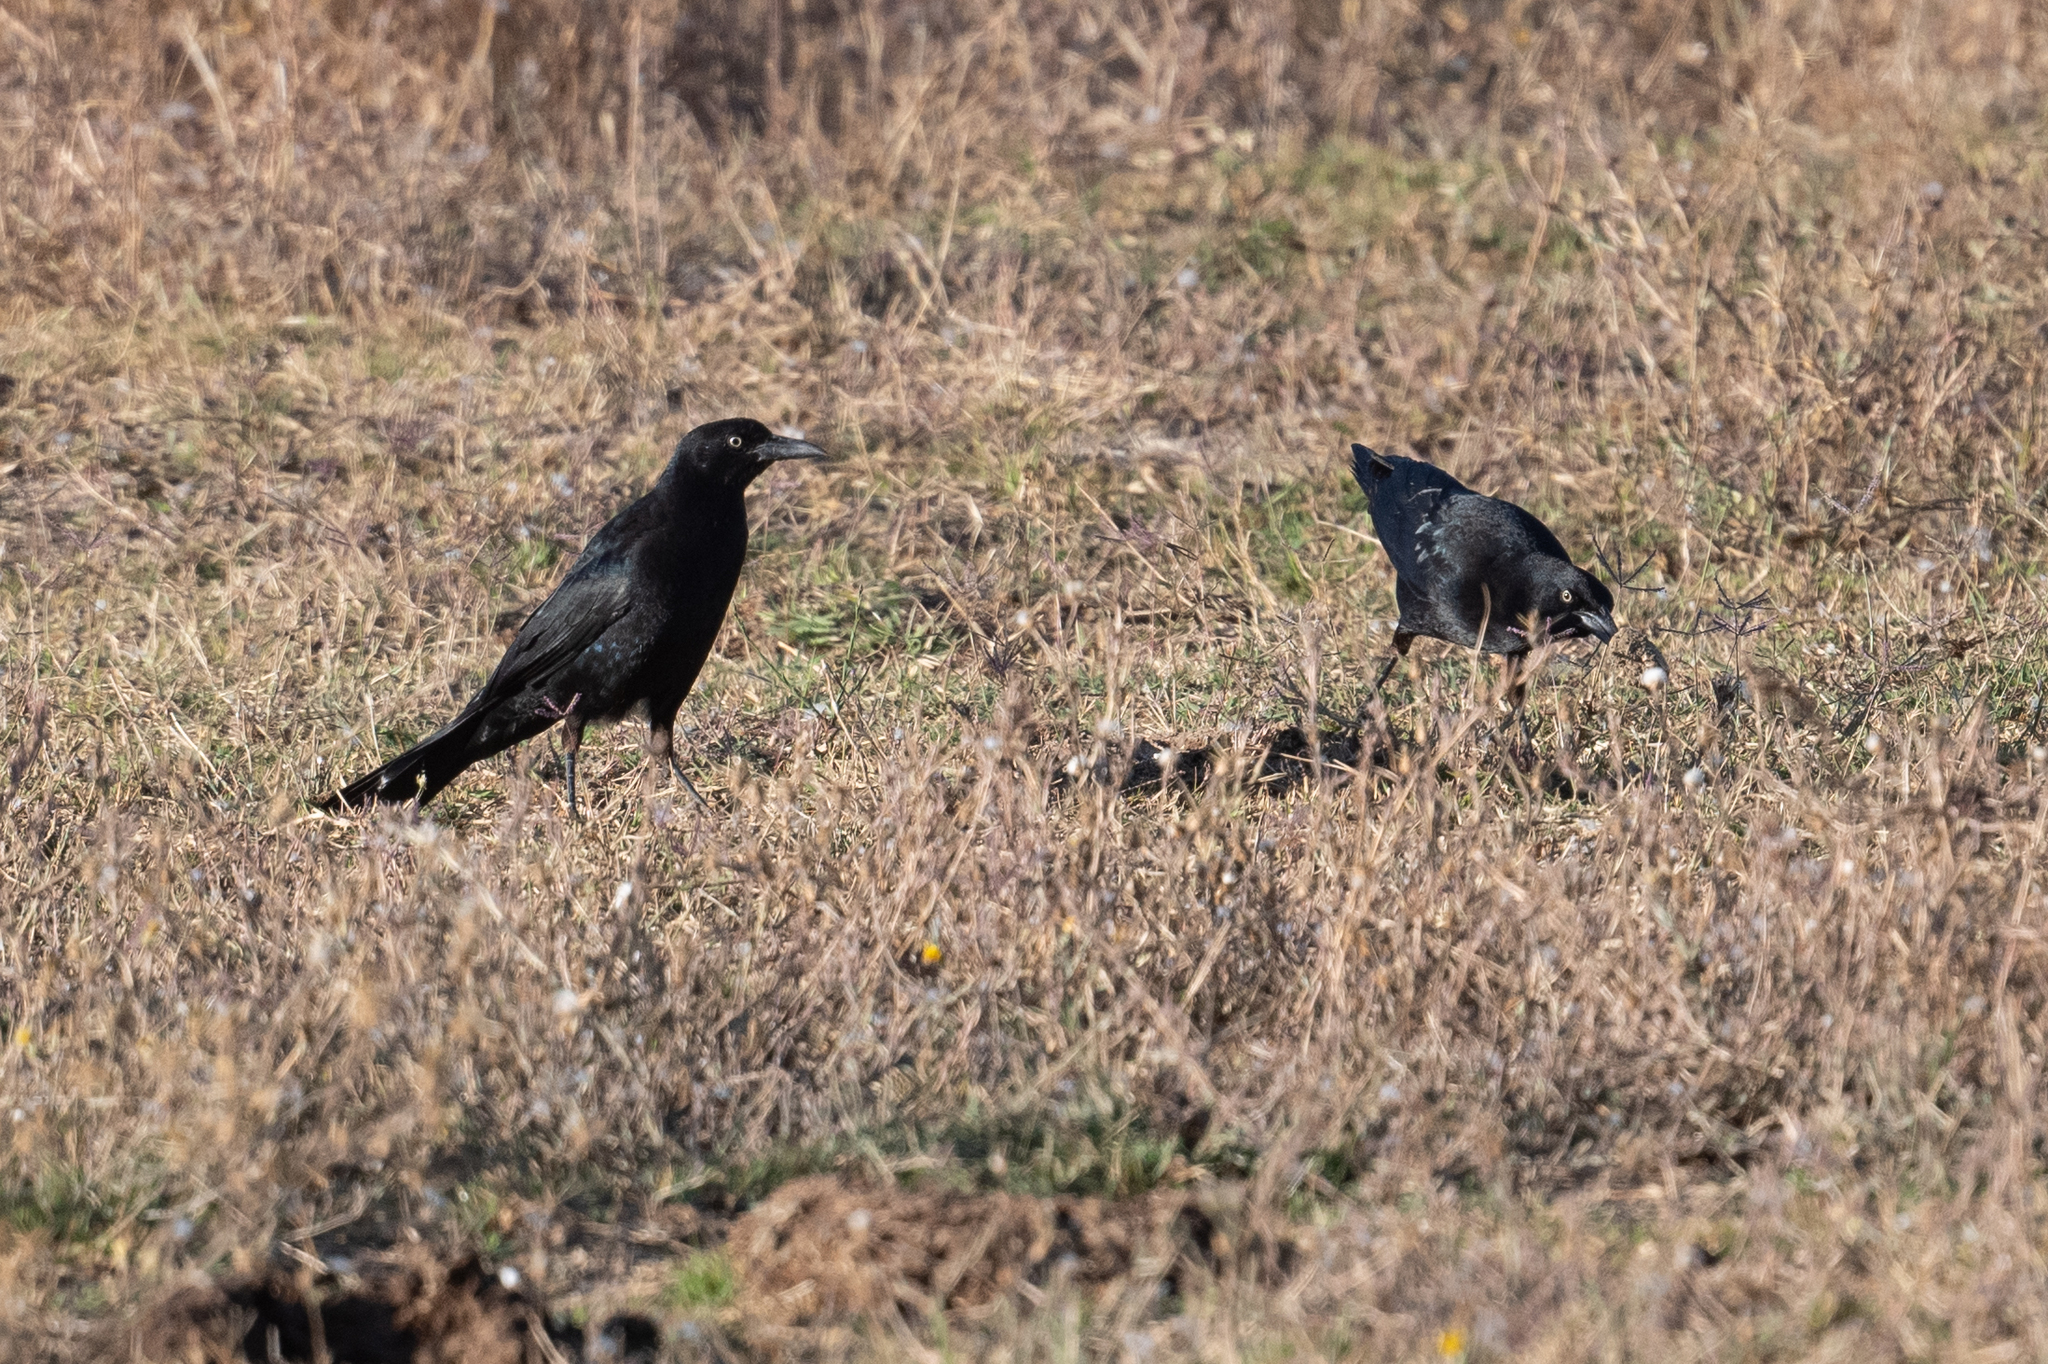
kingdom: Animalia
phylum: Chordata
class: Aves
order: Passeriformes
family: Icteridae
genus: Quiscalus
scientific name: Quiscalus mexicanus
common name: Great-tailed grackle
